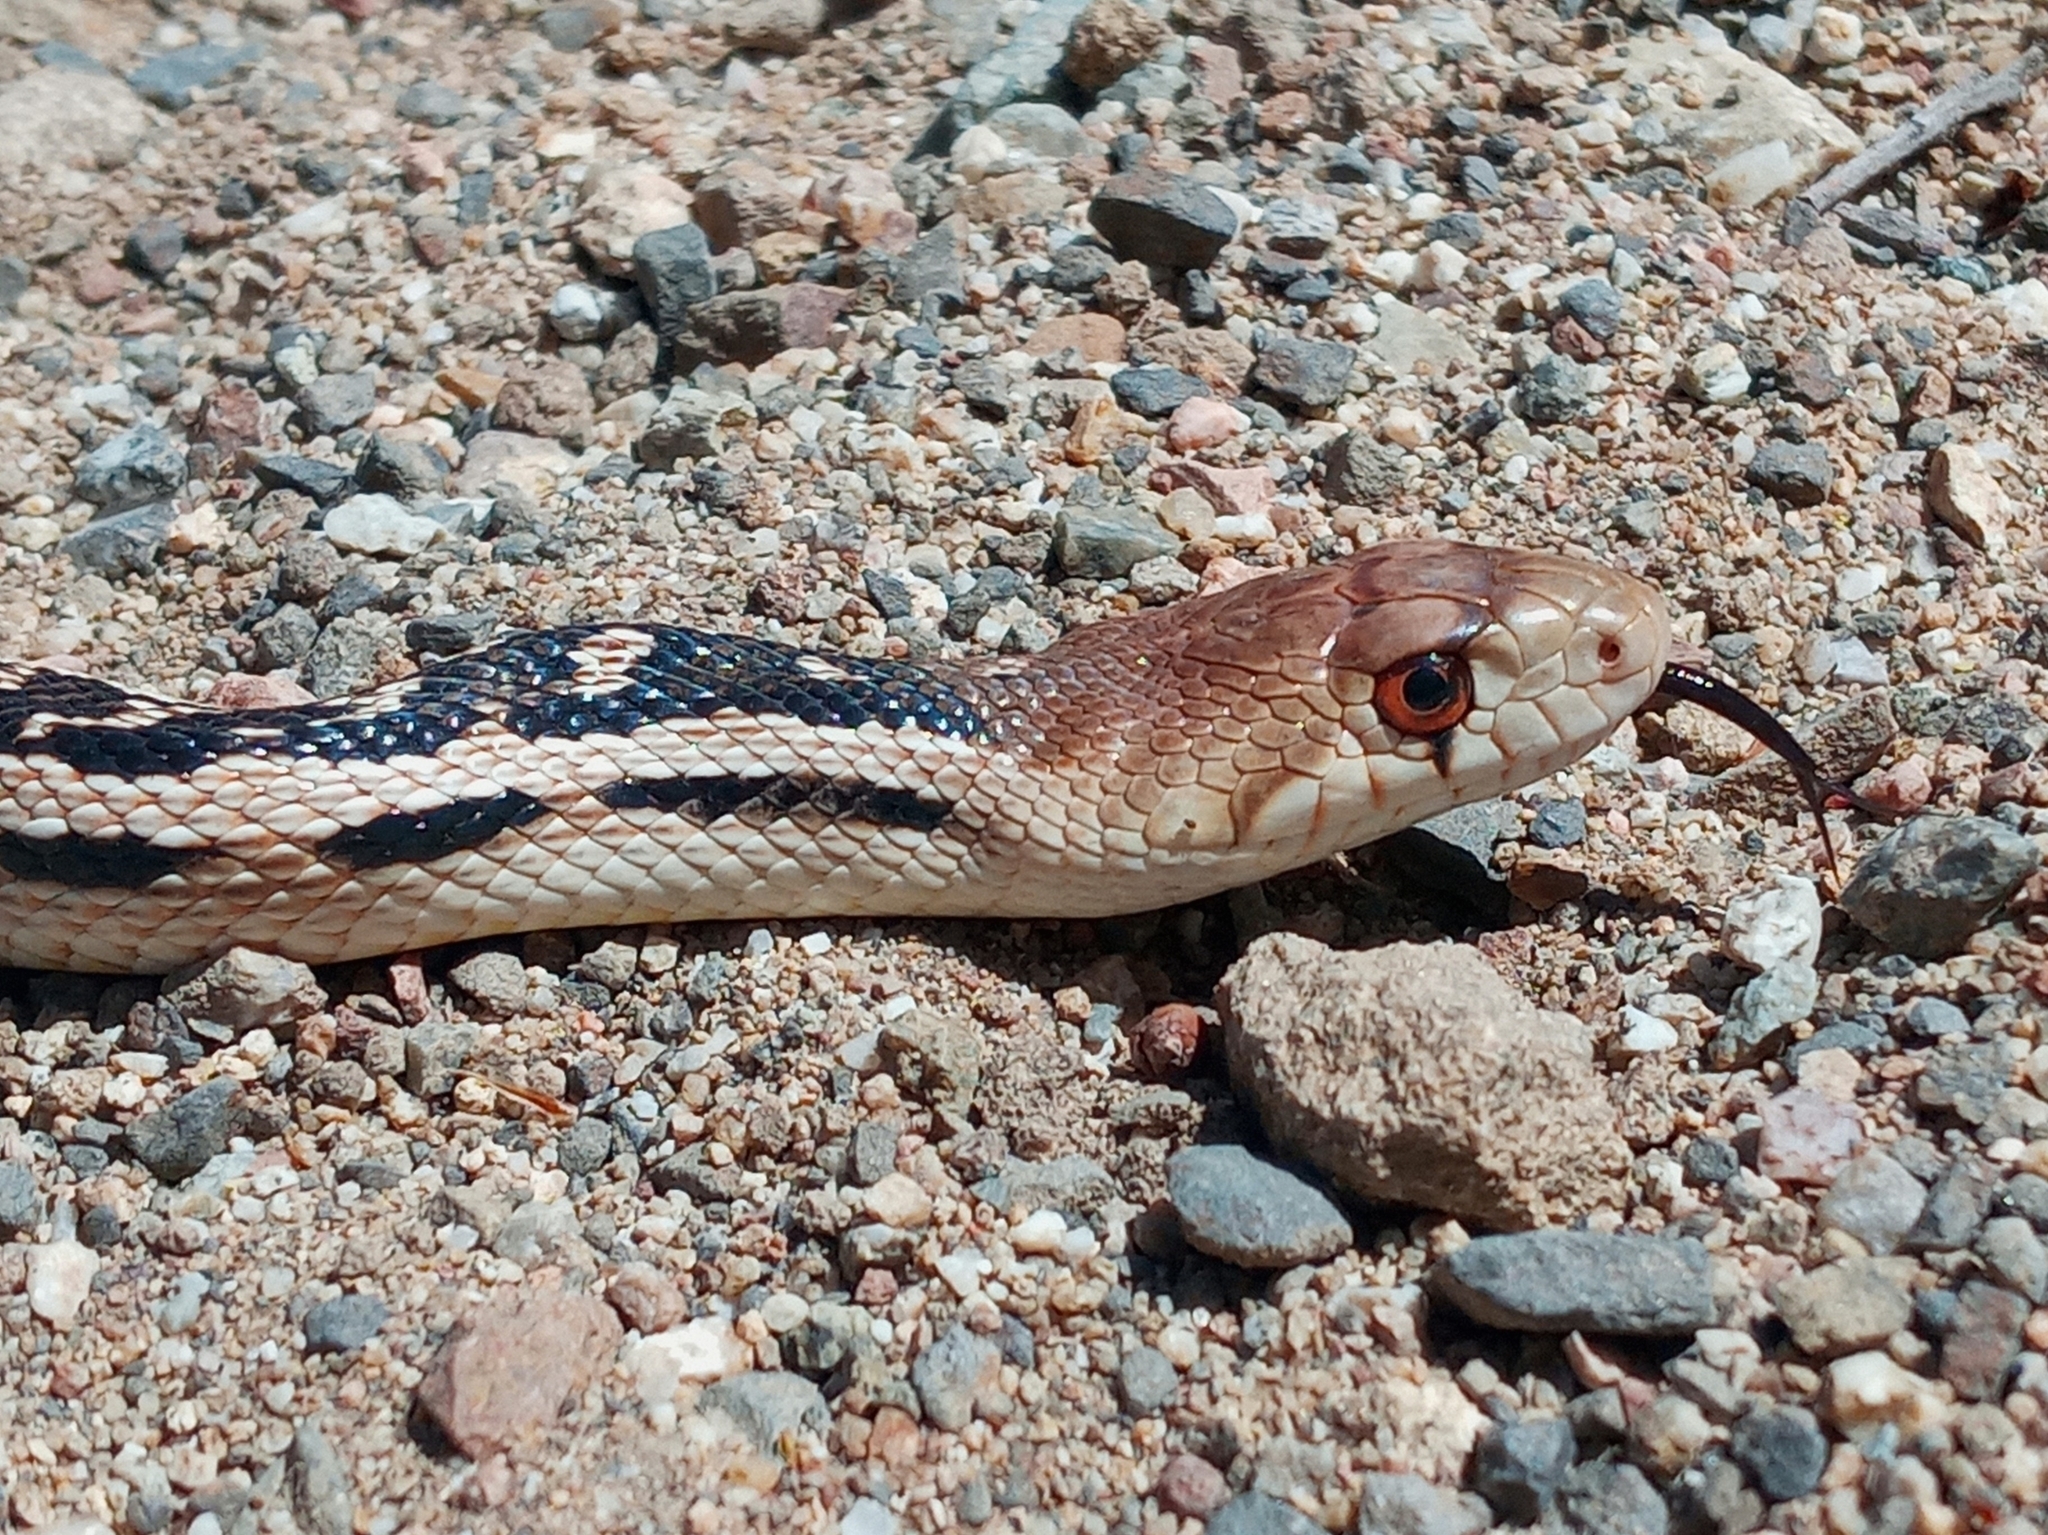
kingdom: Animalia
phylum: Chordata
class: Squamata
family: Colubridae
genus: Pituophis
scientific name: Pituophis catenifer
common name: Gopher snake
